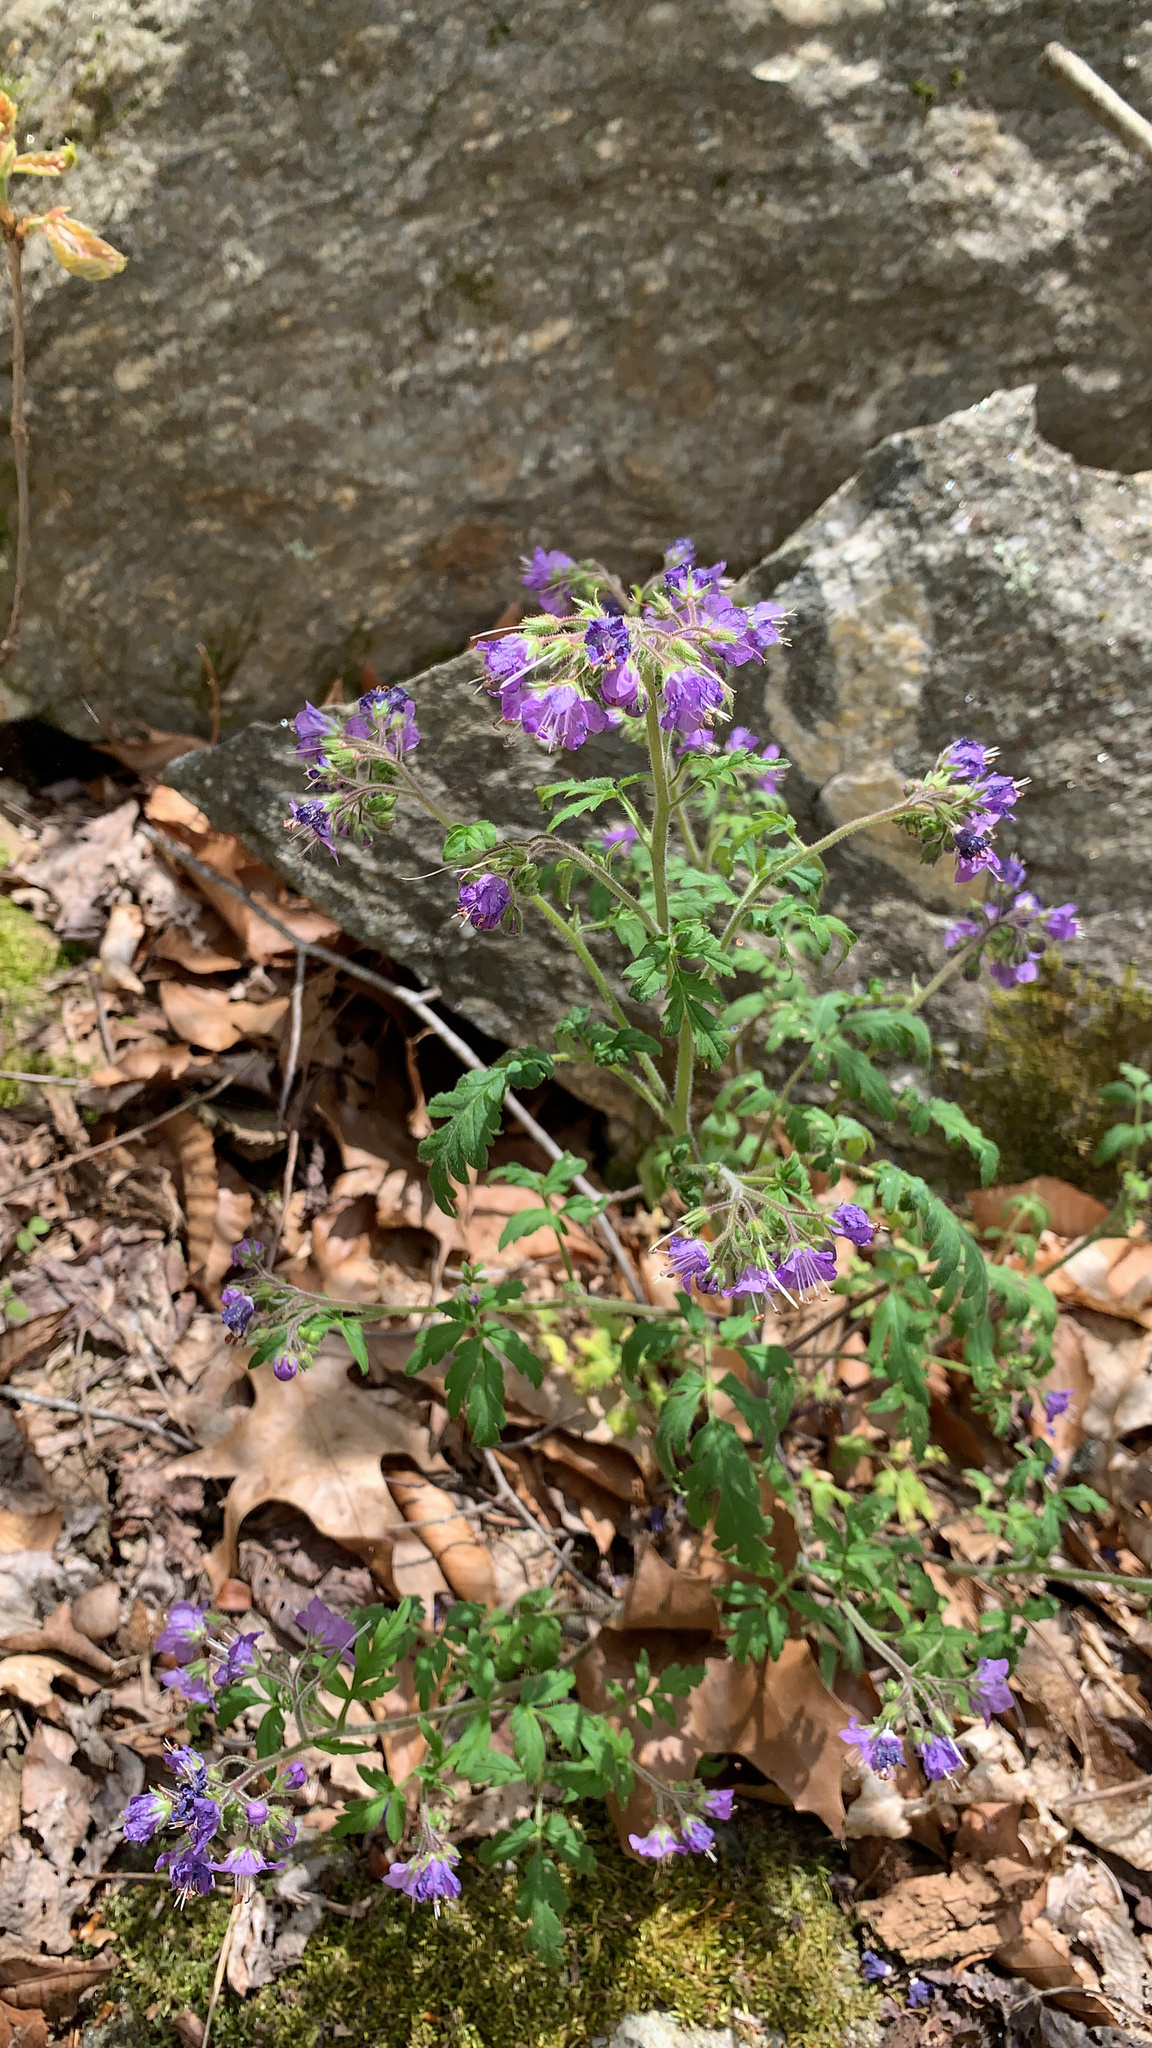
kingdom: Plantae
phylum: Tracheophyta
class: Magnoliopsida
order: Boraginales
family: Hydrophyllaceae
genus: Phacelia
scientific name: Phacelia bipinnatifida
